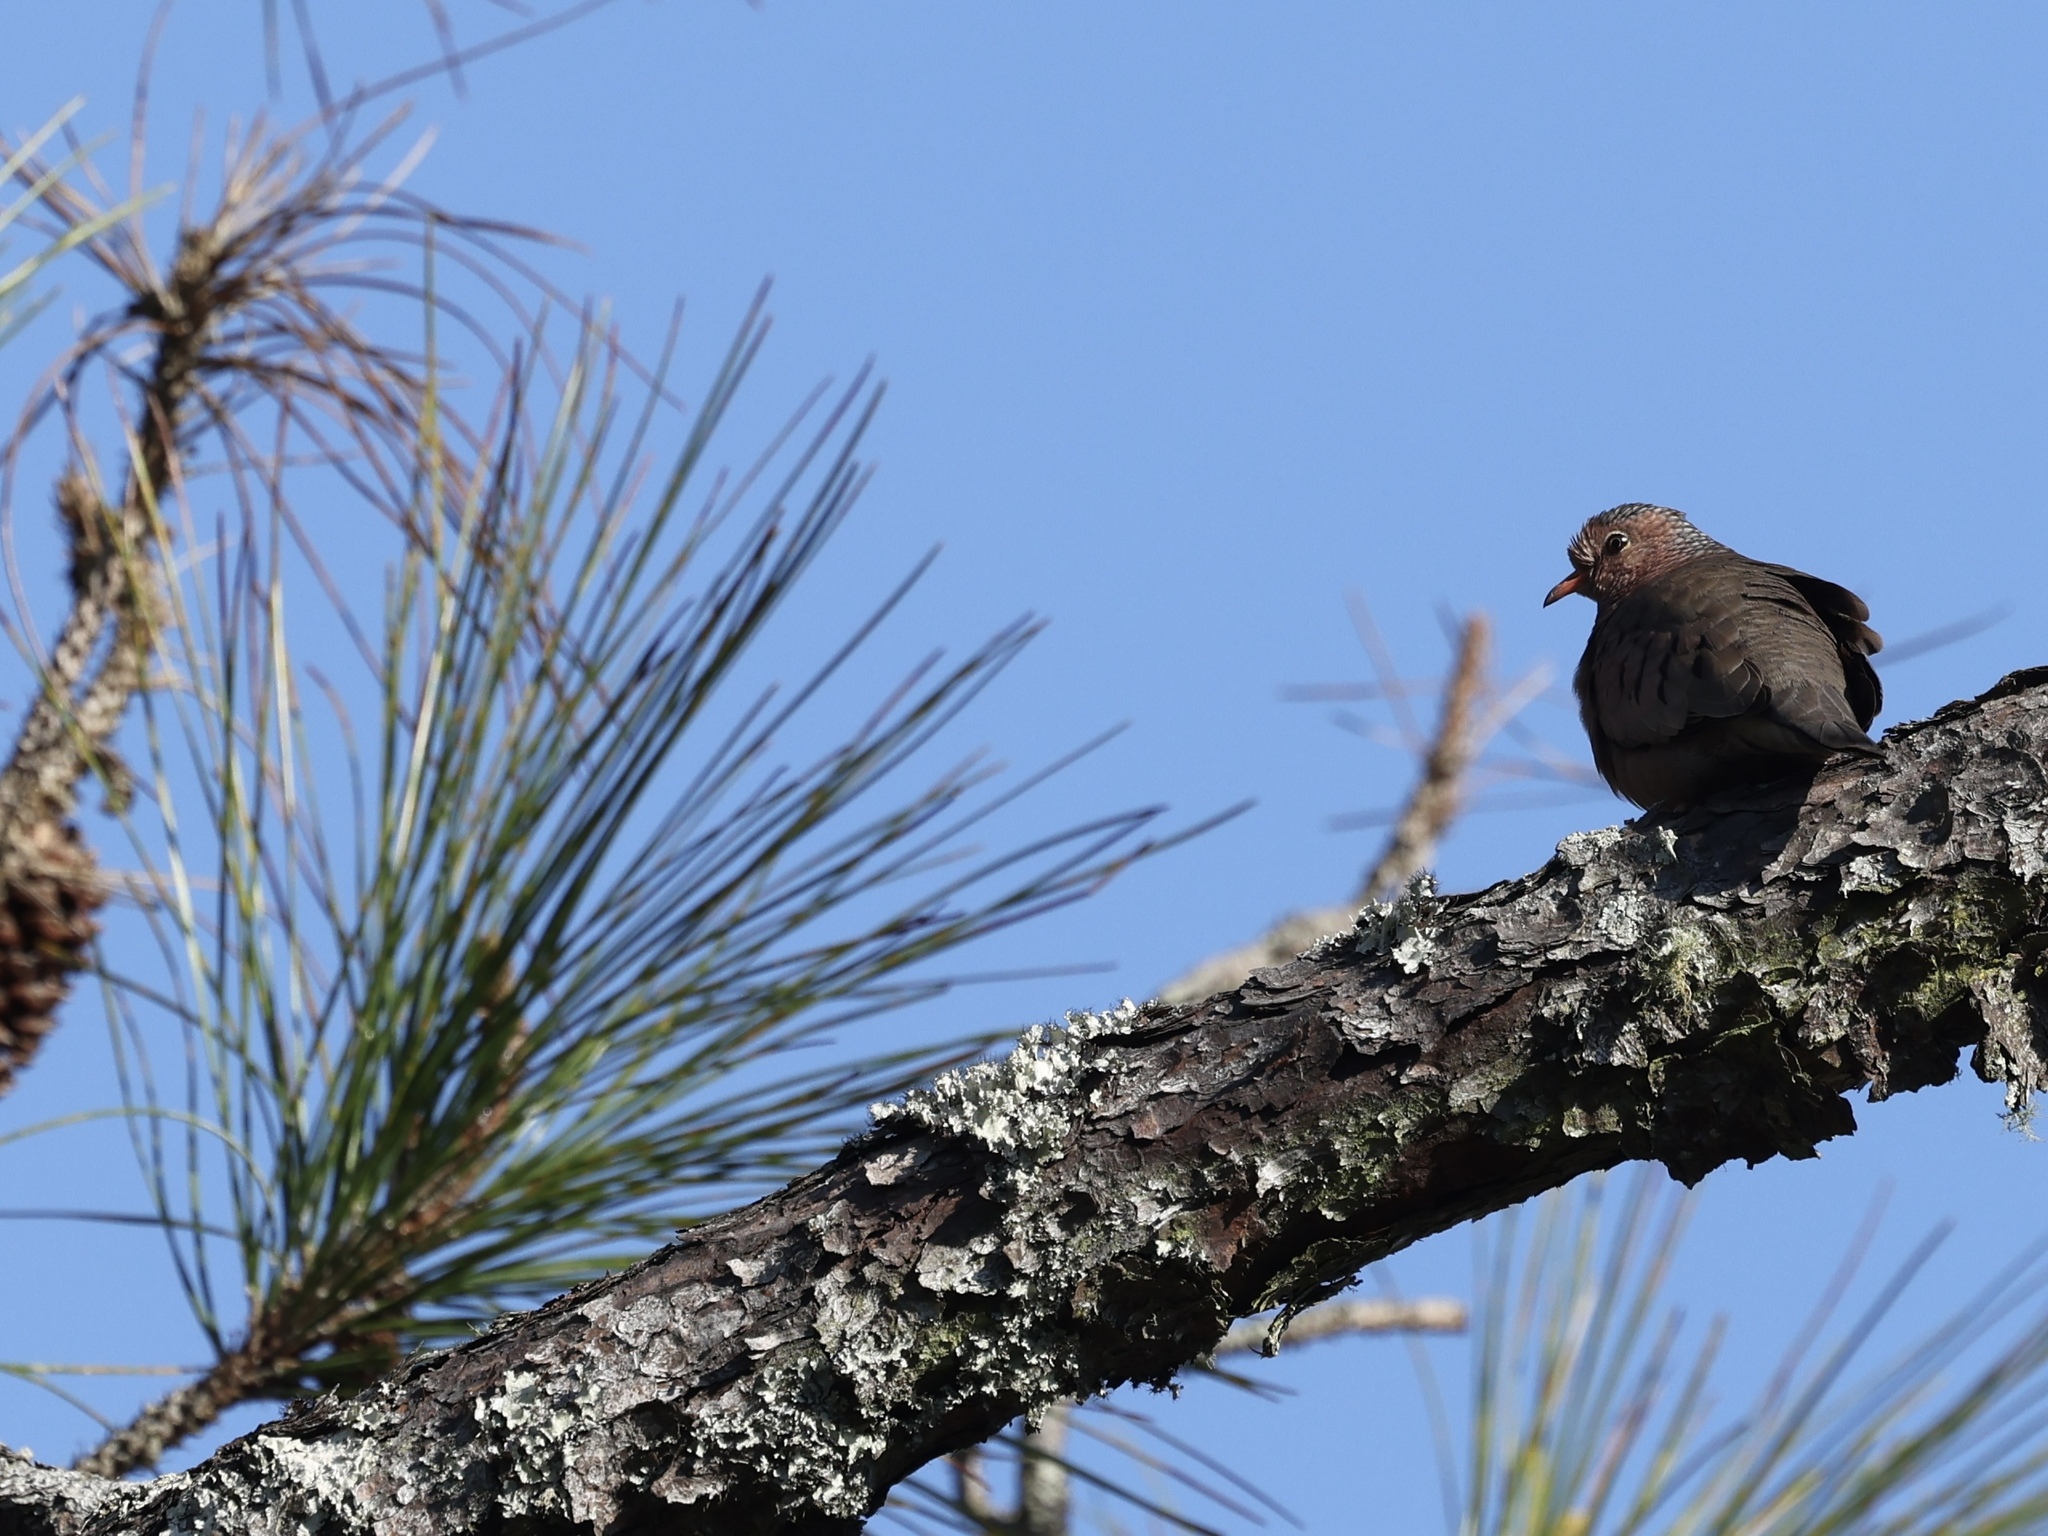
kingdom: Animalia
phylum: Chordata
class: Aves
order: Columbiformes
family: Columbidae
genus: Columbina
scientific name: Columbina passerina
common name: Common ground-dove
